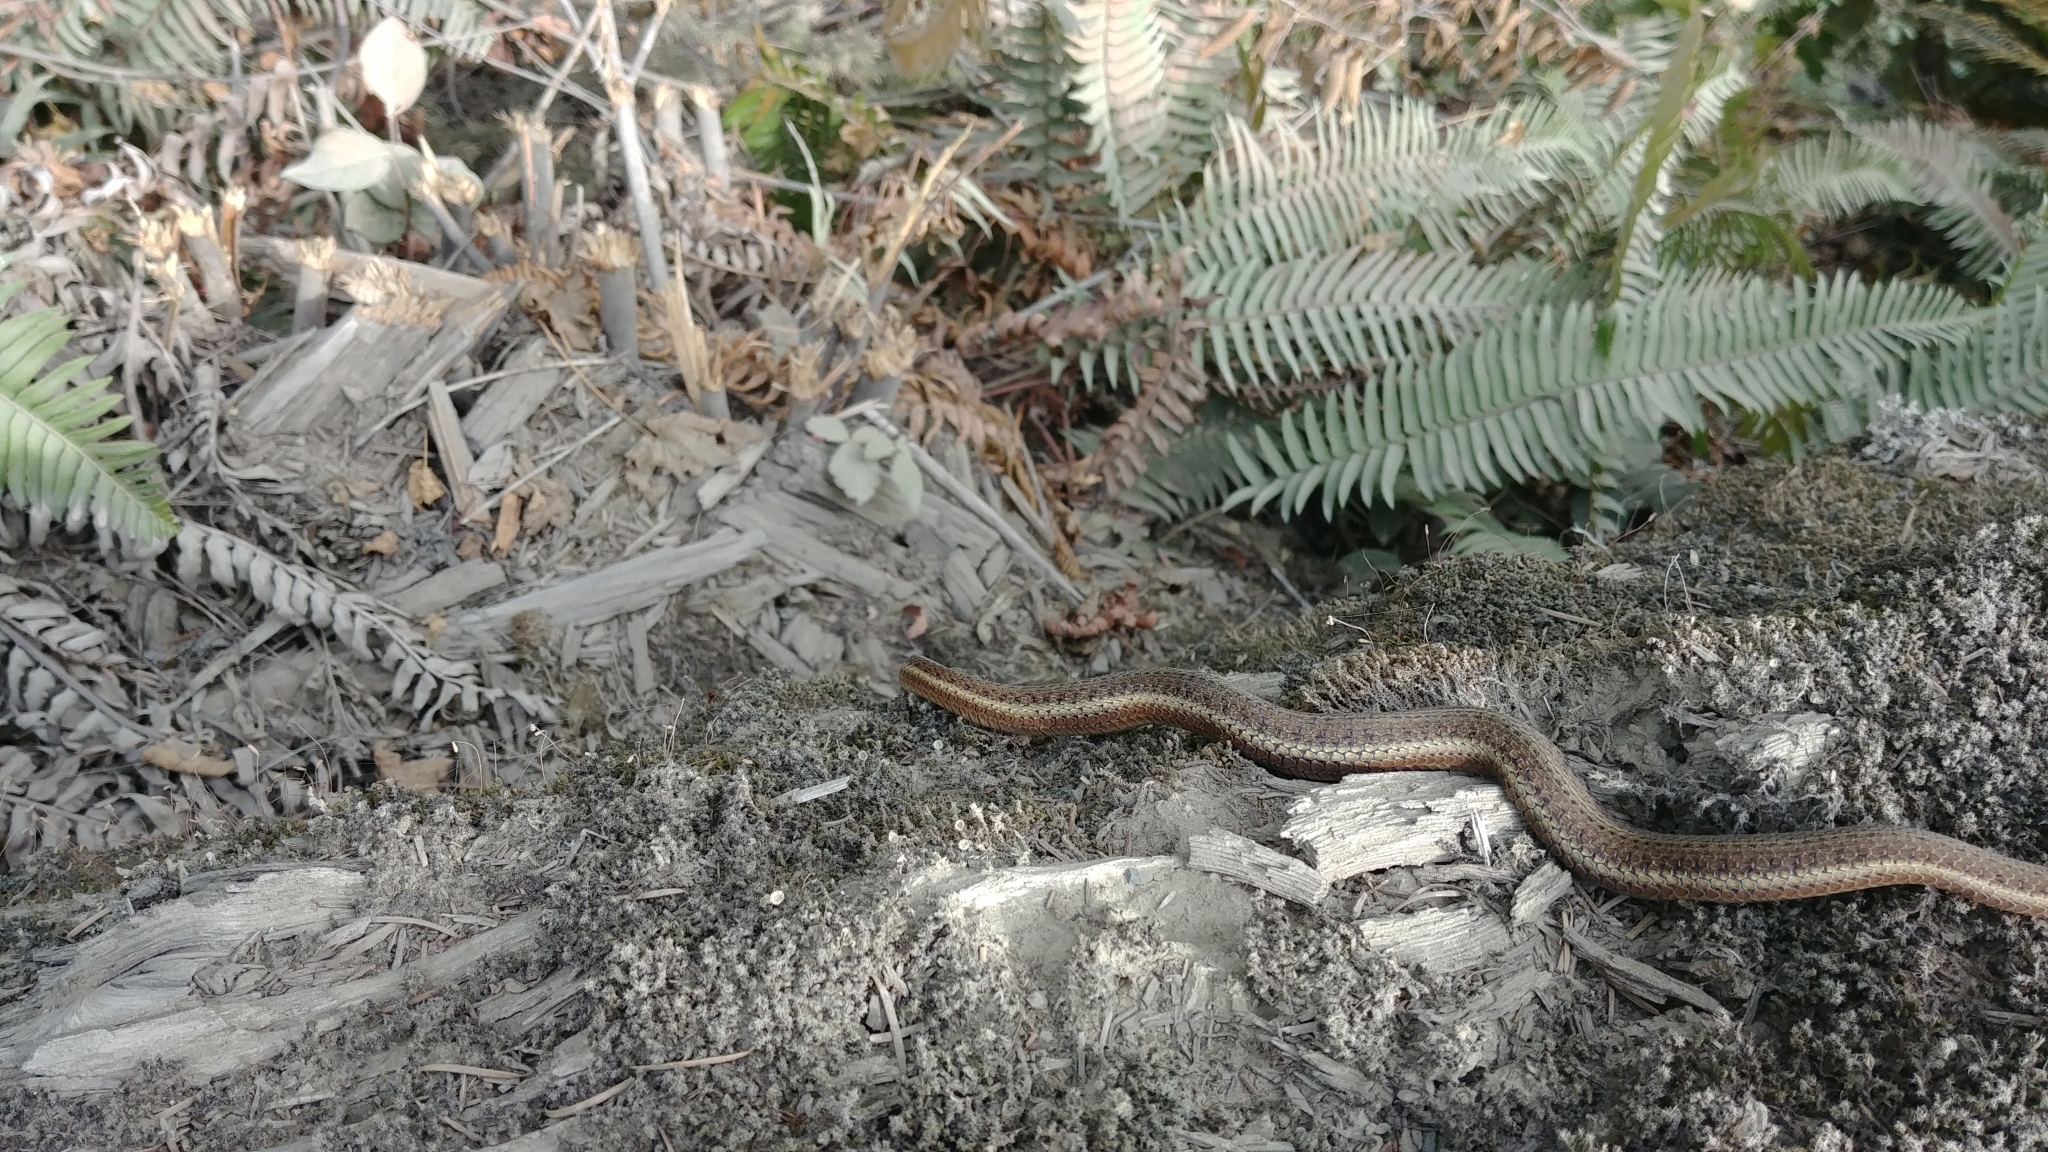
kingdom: Animalia
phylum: Chordata
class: Squamata
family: Colubridae
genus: Thamnophis
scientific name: Thamnophis ordinoides
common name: Northwestern garter snake
